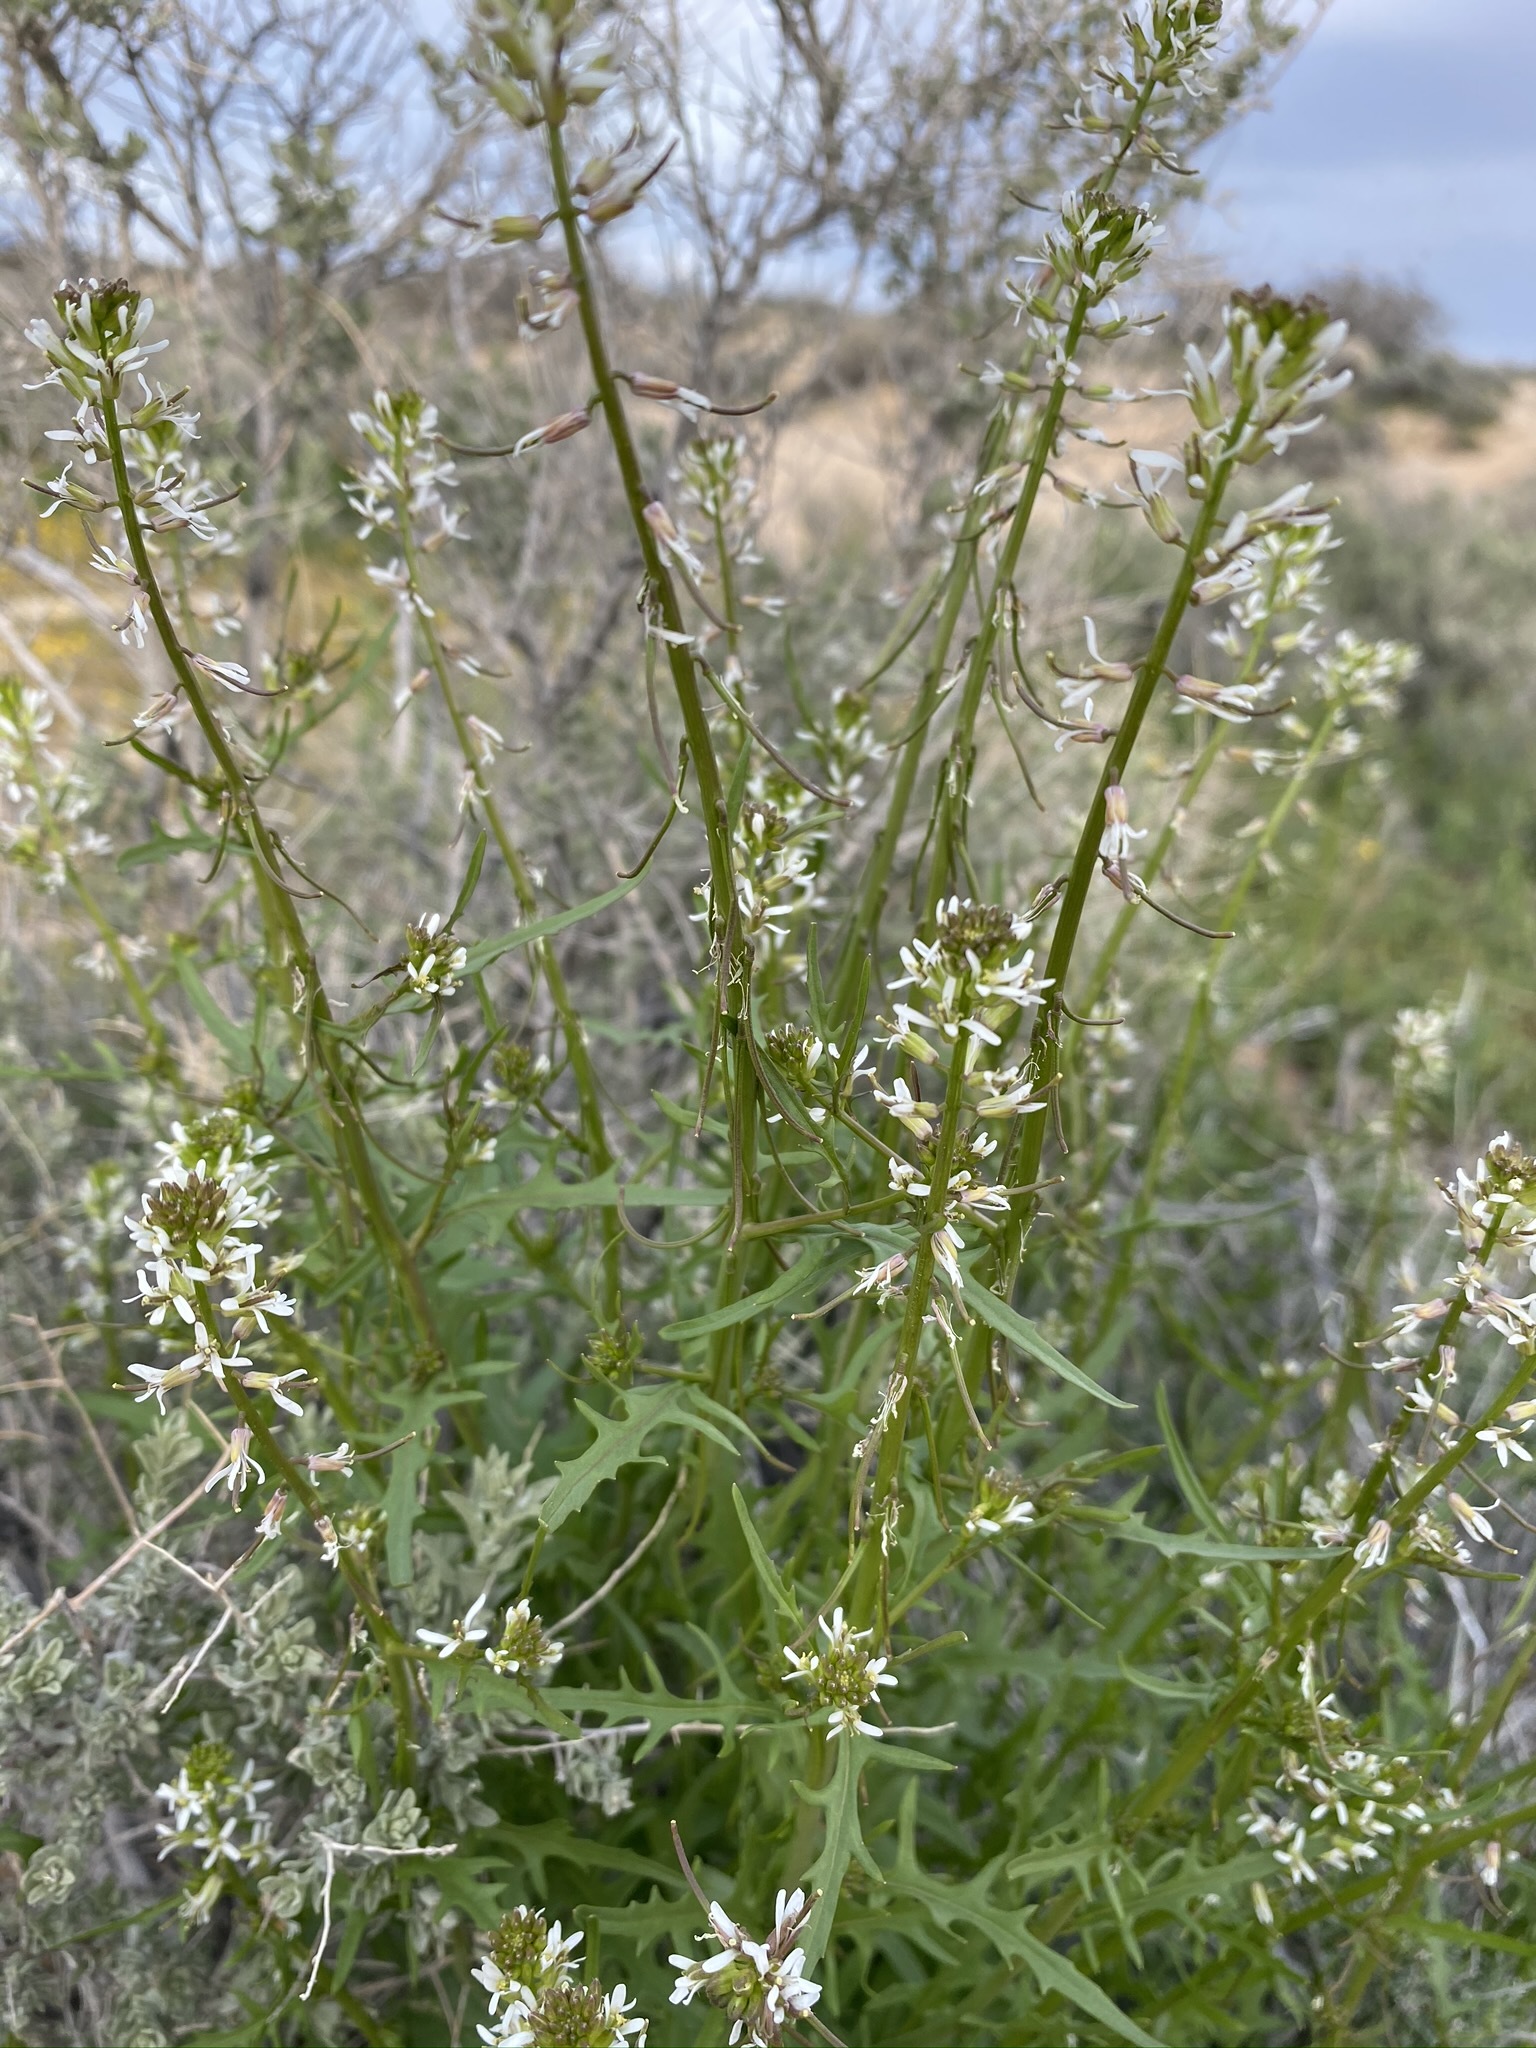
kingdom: Plantae
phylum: Tracheophyta
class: Magnoliopsida
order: Brassicales
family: Brassicaceae
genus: Streptanthus
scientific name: Streptanthus lasiophyllus
